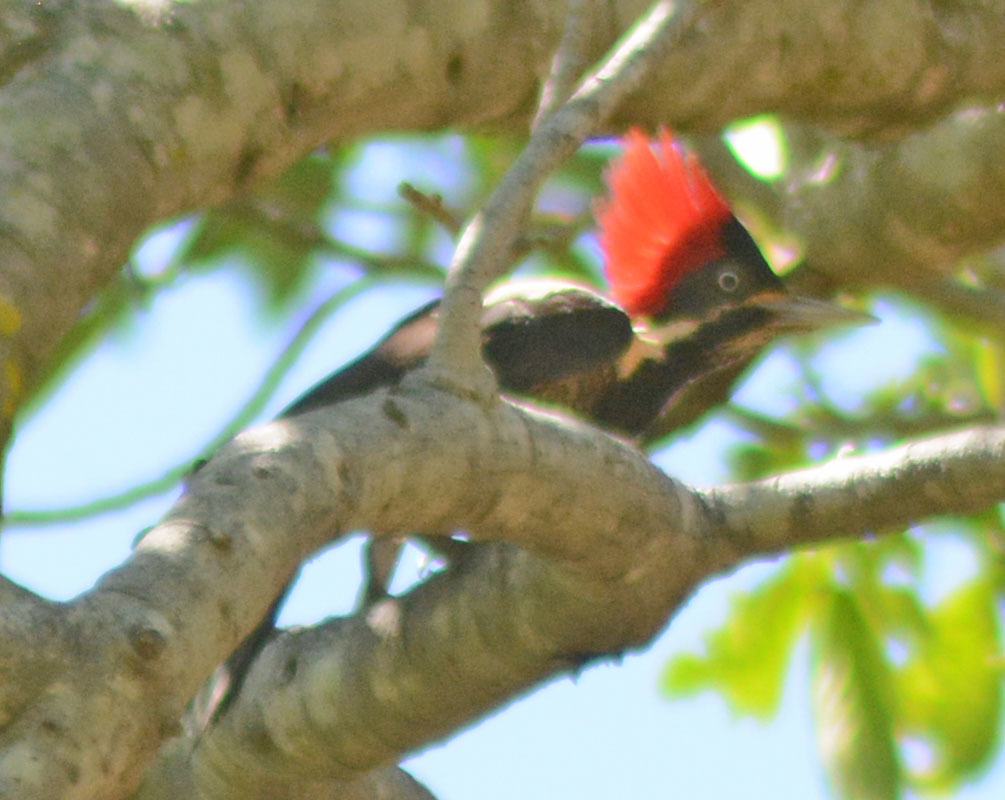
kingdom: Animalia
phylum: Chordata
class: Aves
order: Piciformes
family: Picidae
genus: Dryocopus
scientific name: Dryocopus lineatus
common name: Lineated woodpecker
